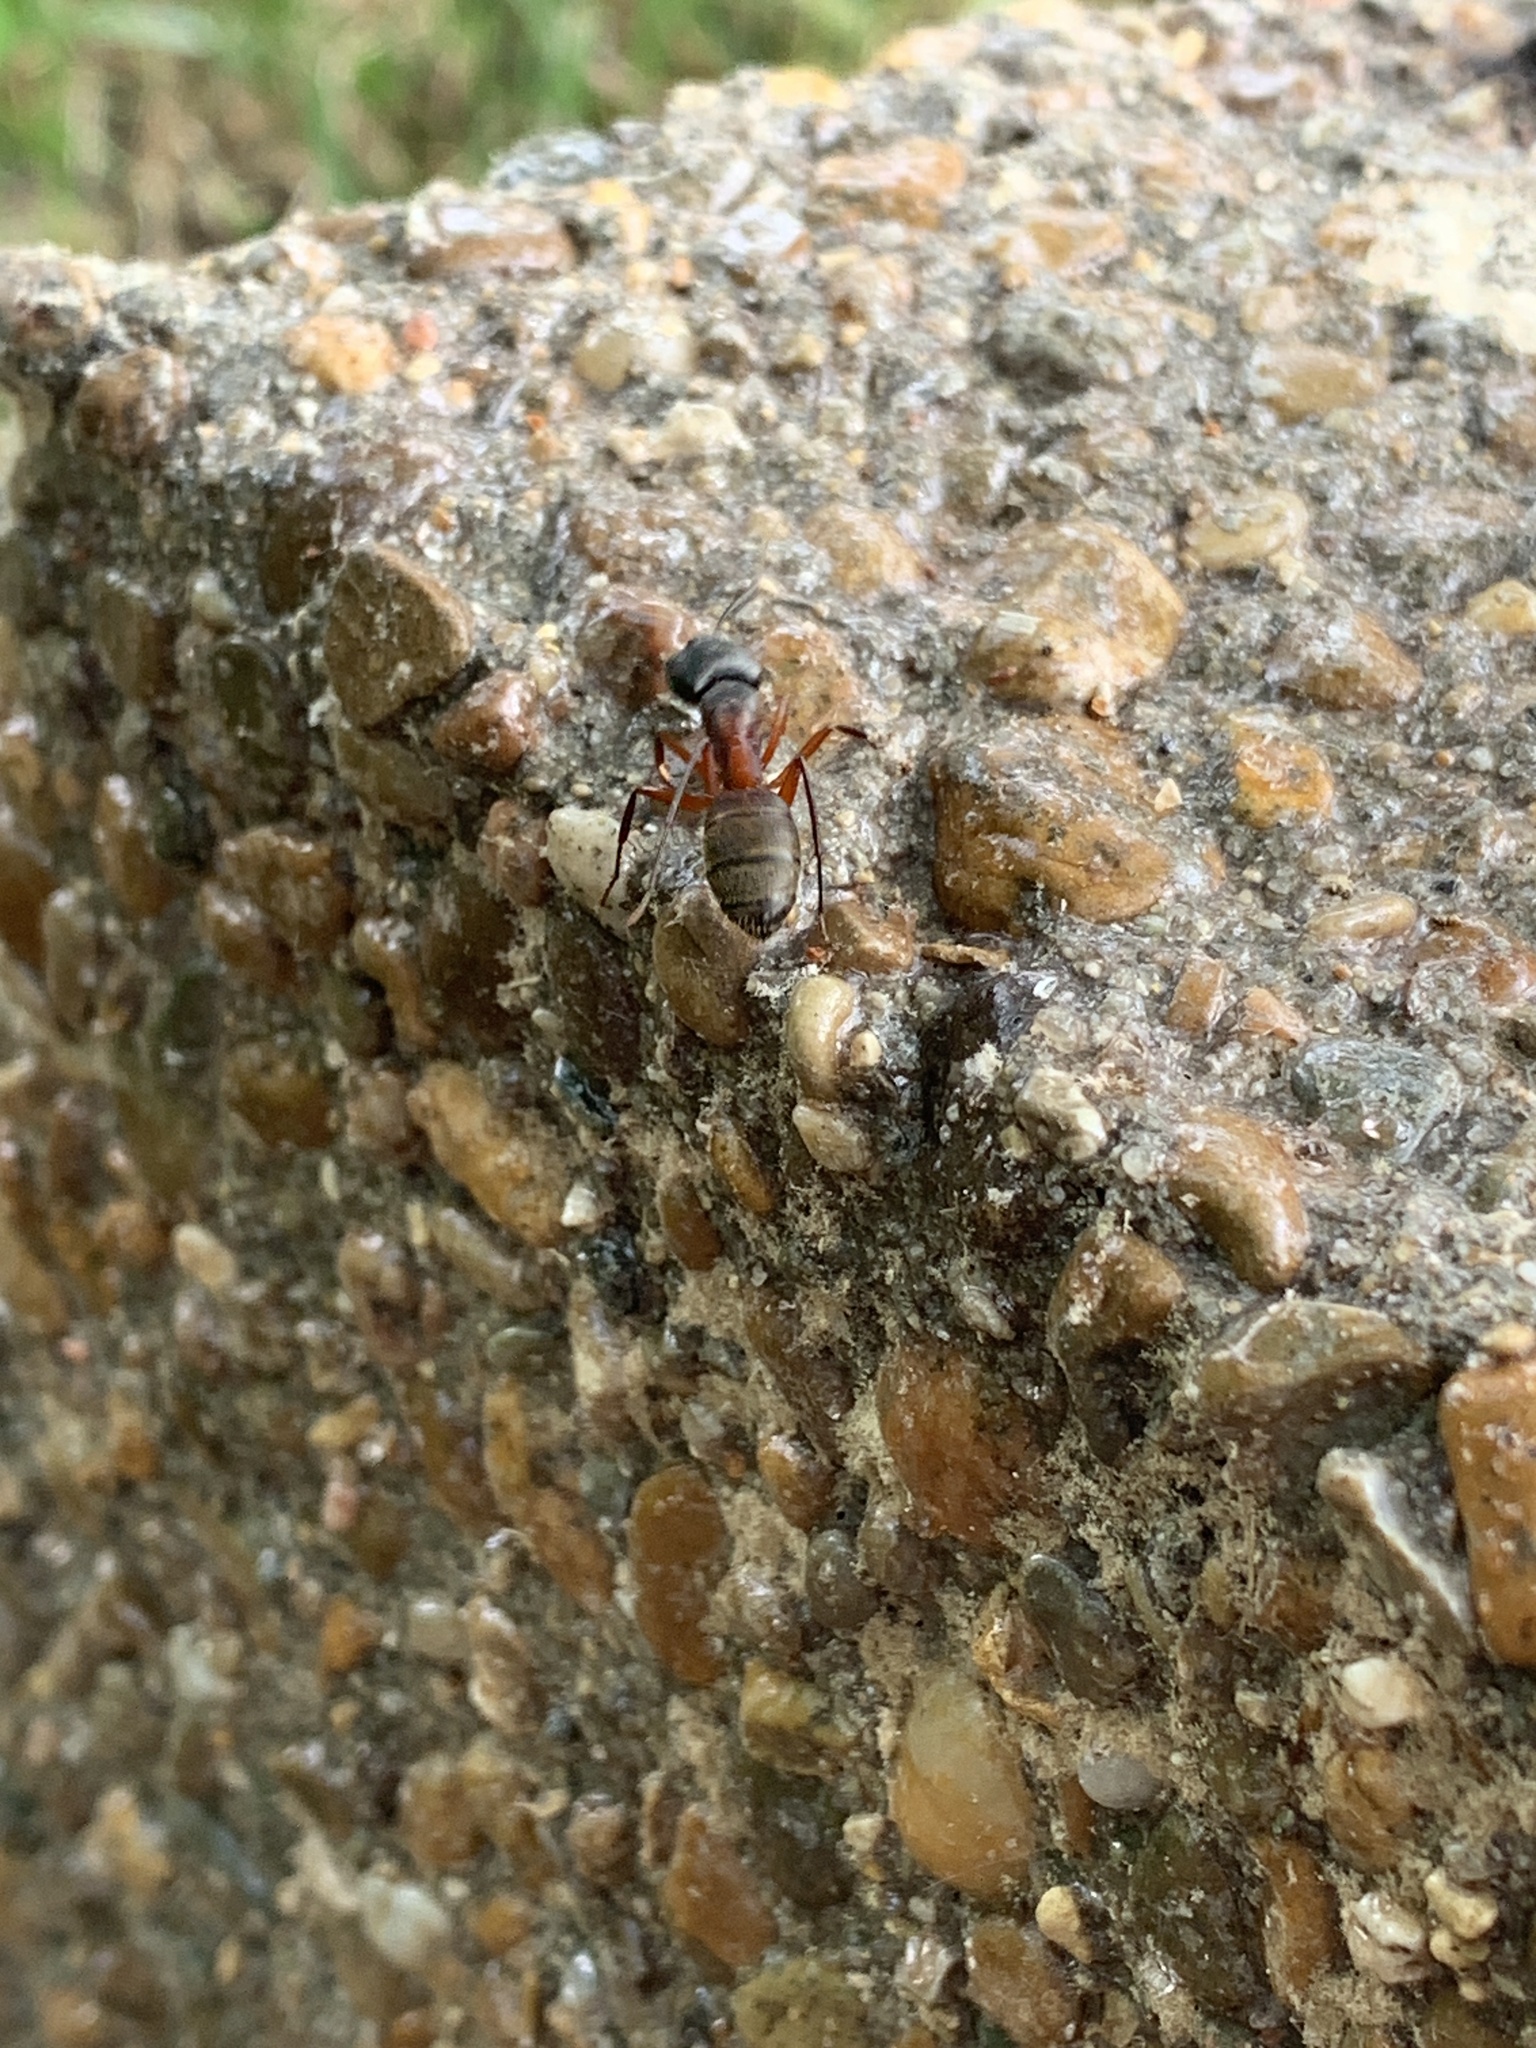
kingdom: Animalia
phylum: Arthropoda
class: Insecta
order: Hymenoptera
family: Formicidae
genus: Camponotus
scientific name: Camponotus chromaiodes
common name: Red carpenter ant
